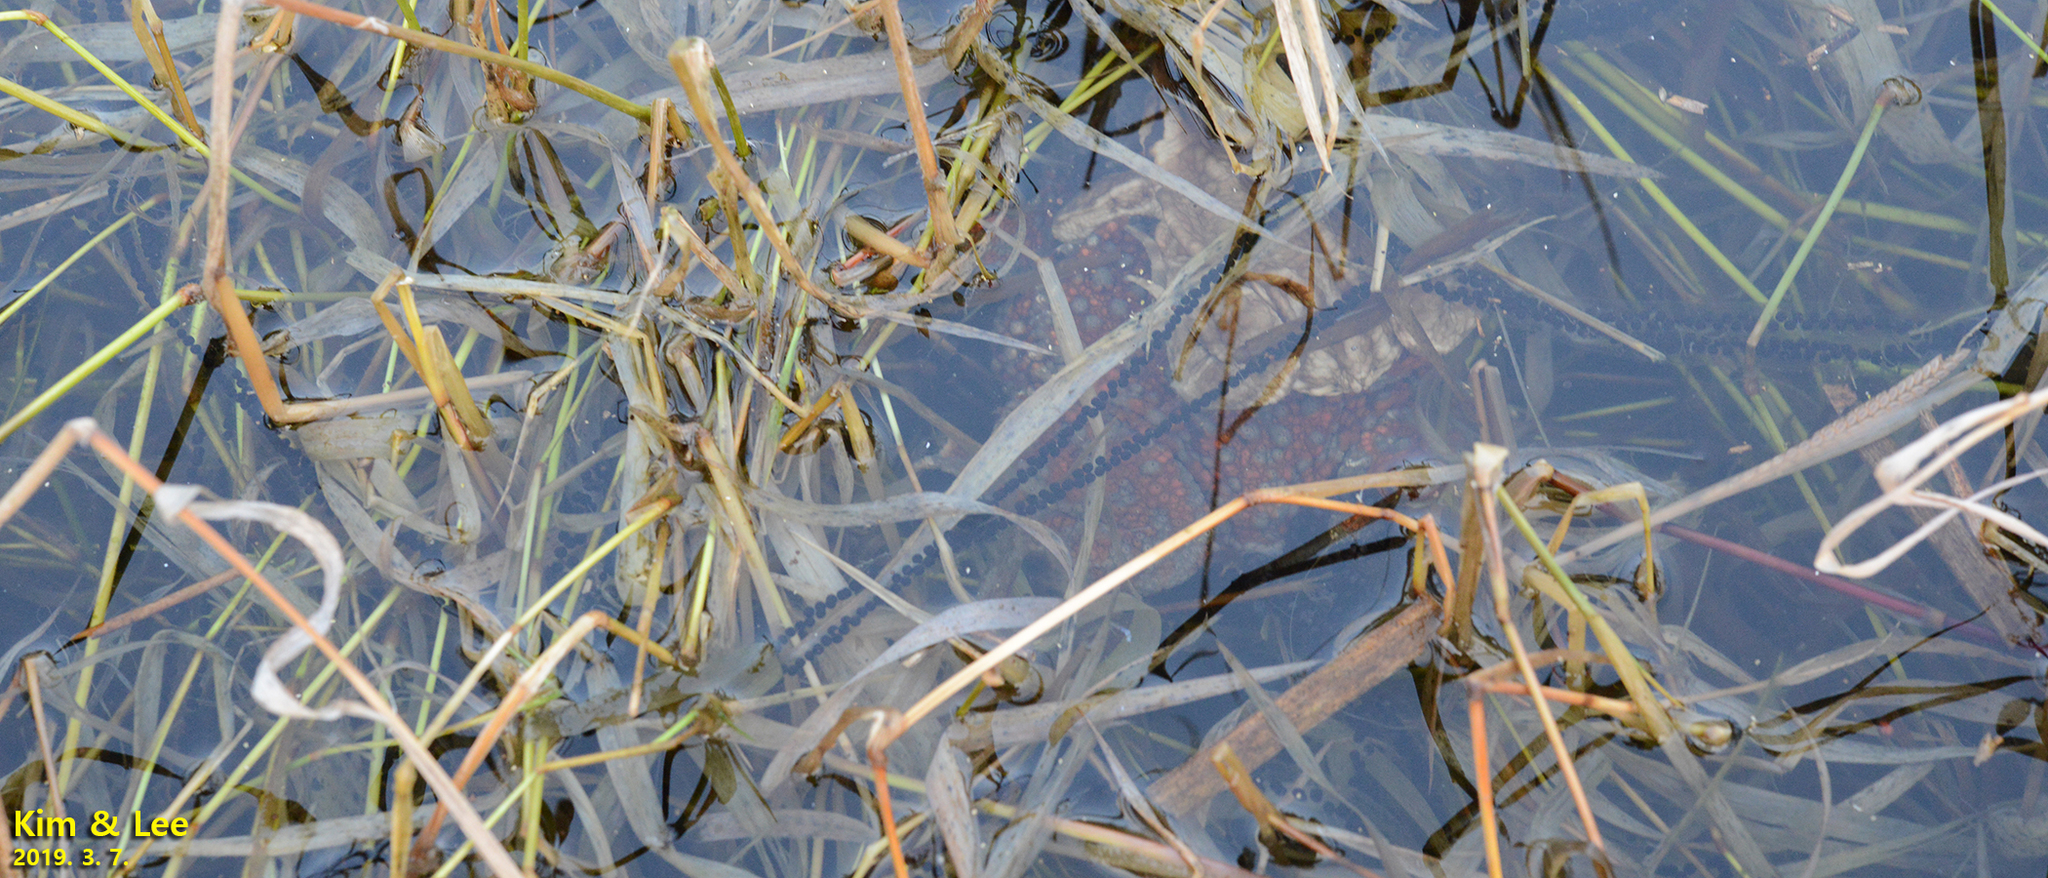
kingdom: Animalia
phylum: Chordata
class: Amphibia
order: Anura
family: Bufonidae
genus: Bufo
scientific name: Bufo gargarizans
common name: Asiatic toad
